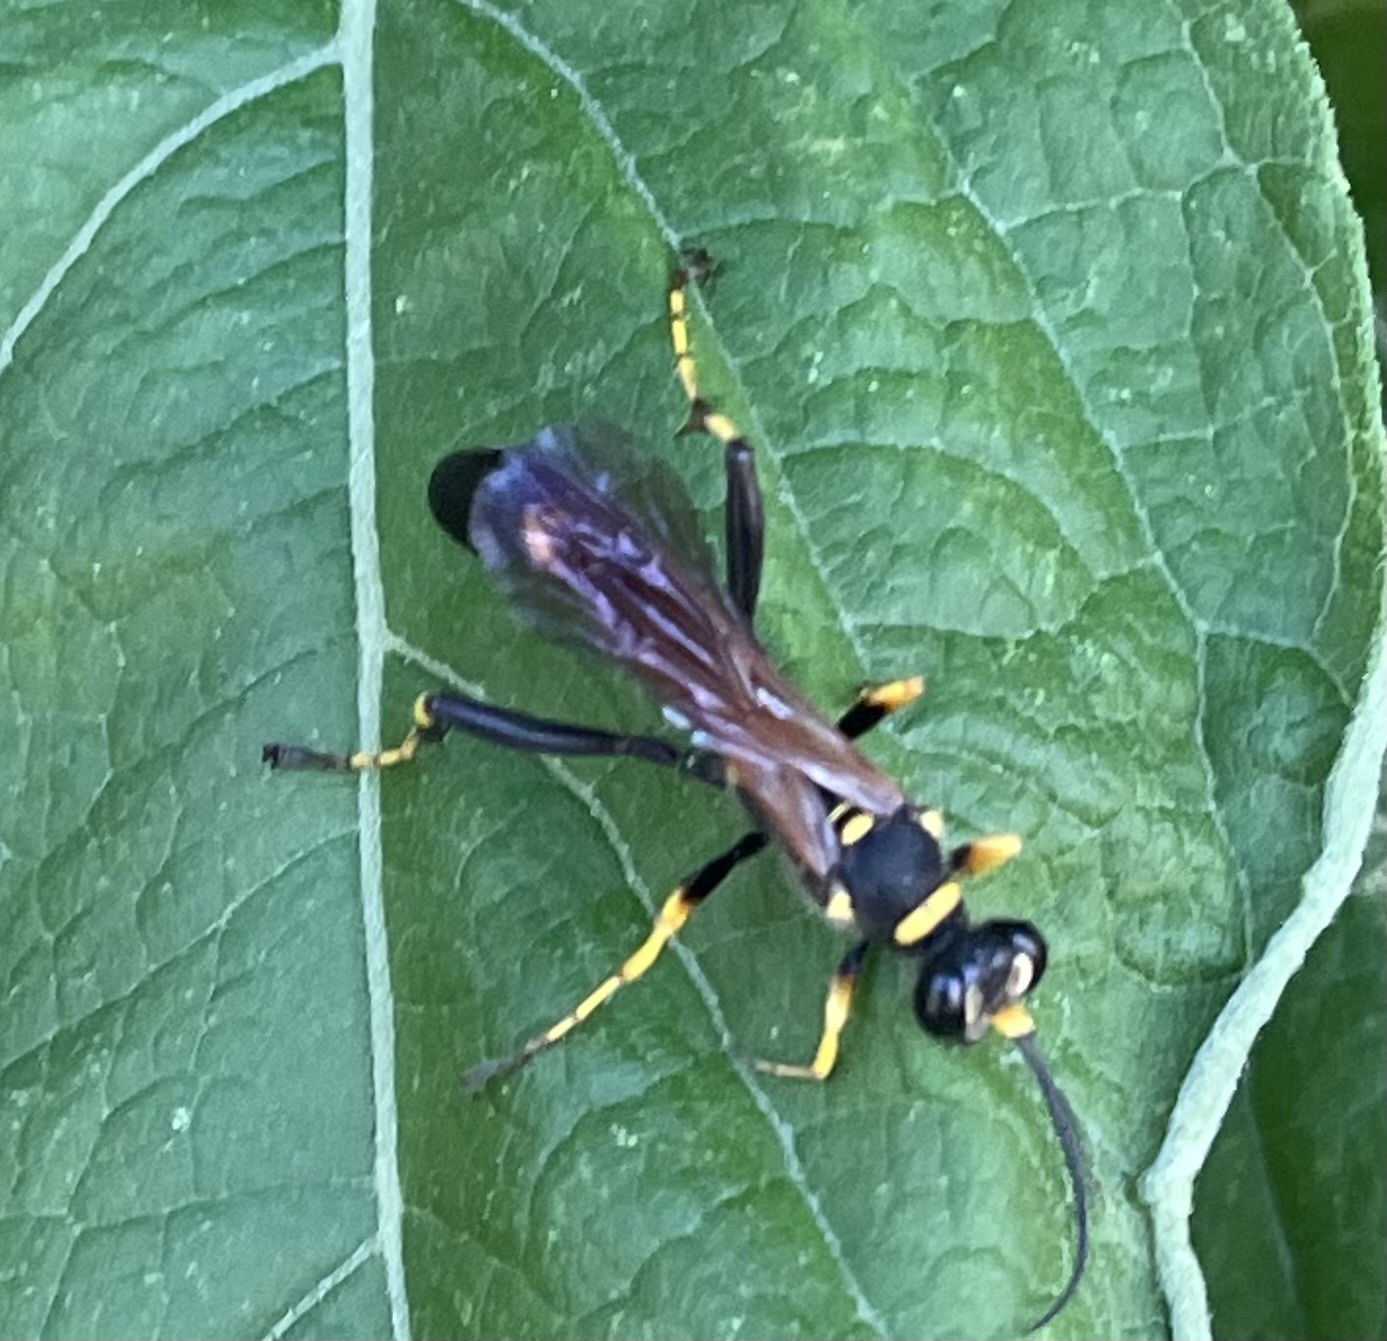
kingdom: Animalia
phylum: Arthropoda
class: Insecta
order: Hymenoptera
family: Sphecidae
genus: Sceliphron
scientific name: Sceliphron caementarium
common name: Mud dauber
